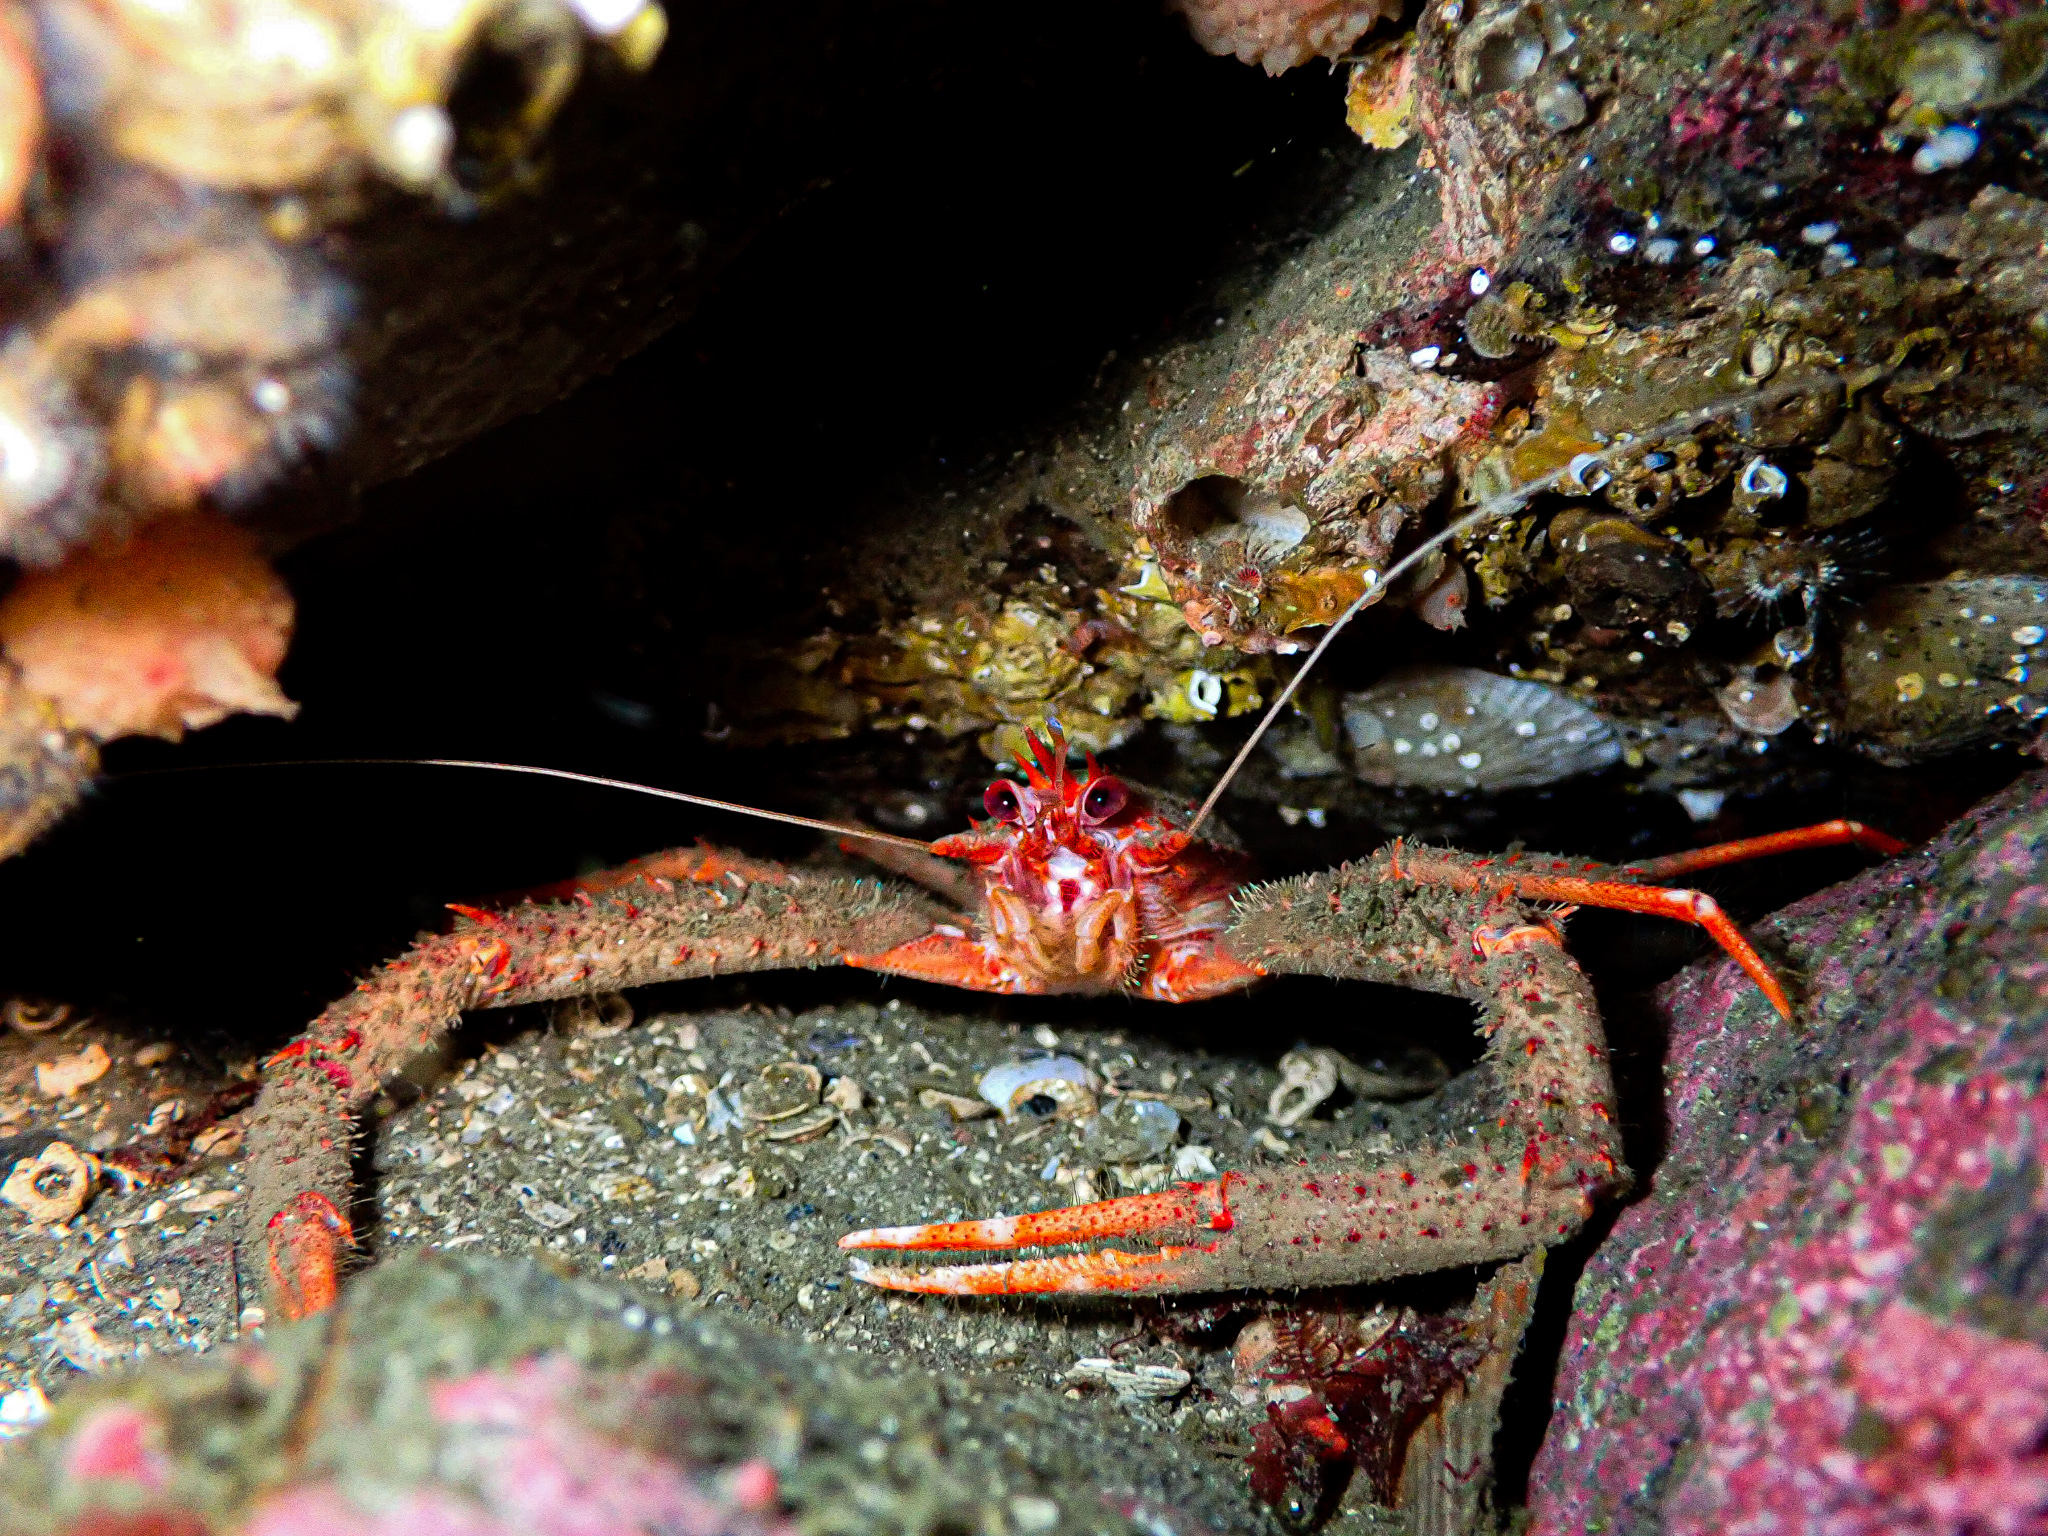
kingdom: Animalia
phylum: Arthropoda
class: Malacostraca
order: Decapoda
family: Munididae
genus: Munida
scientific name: Munida rugosa
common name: Rugose squat lobster
